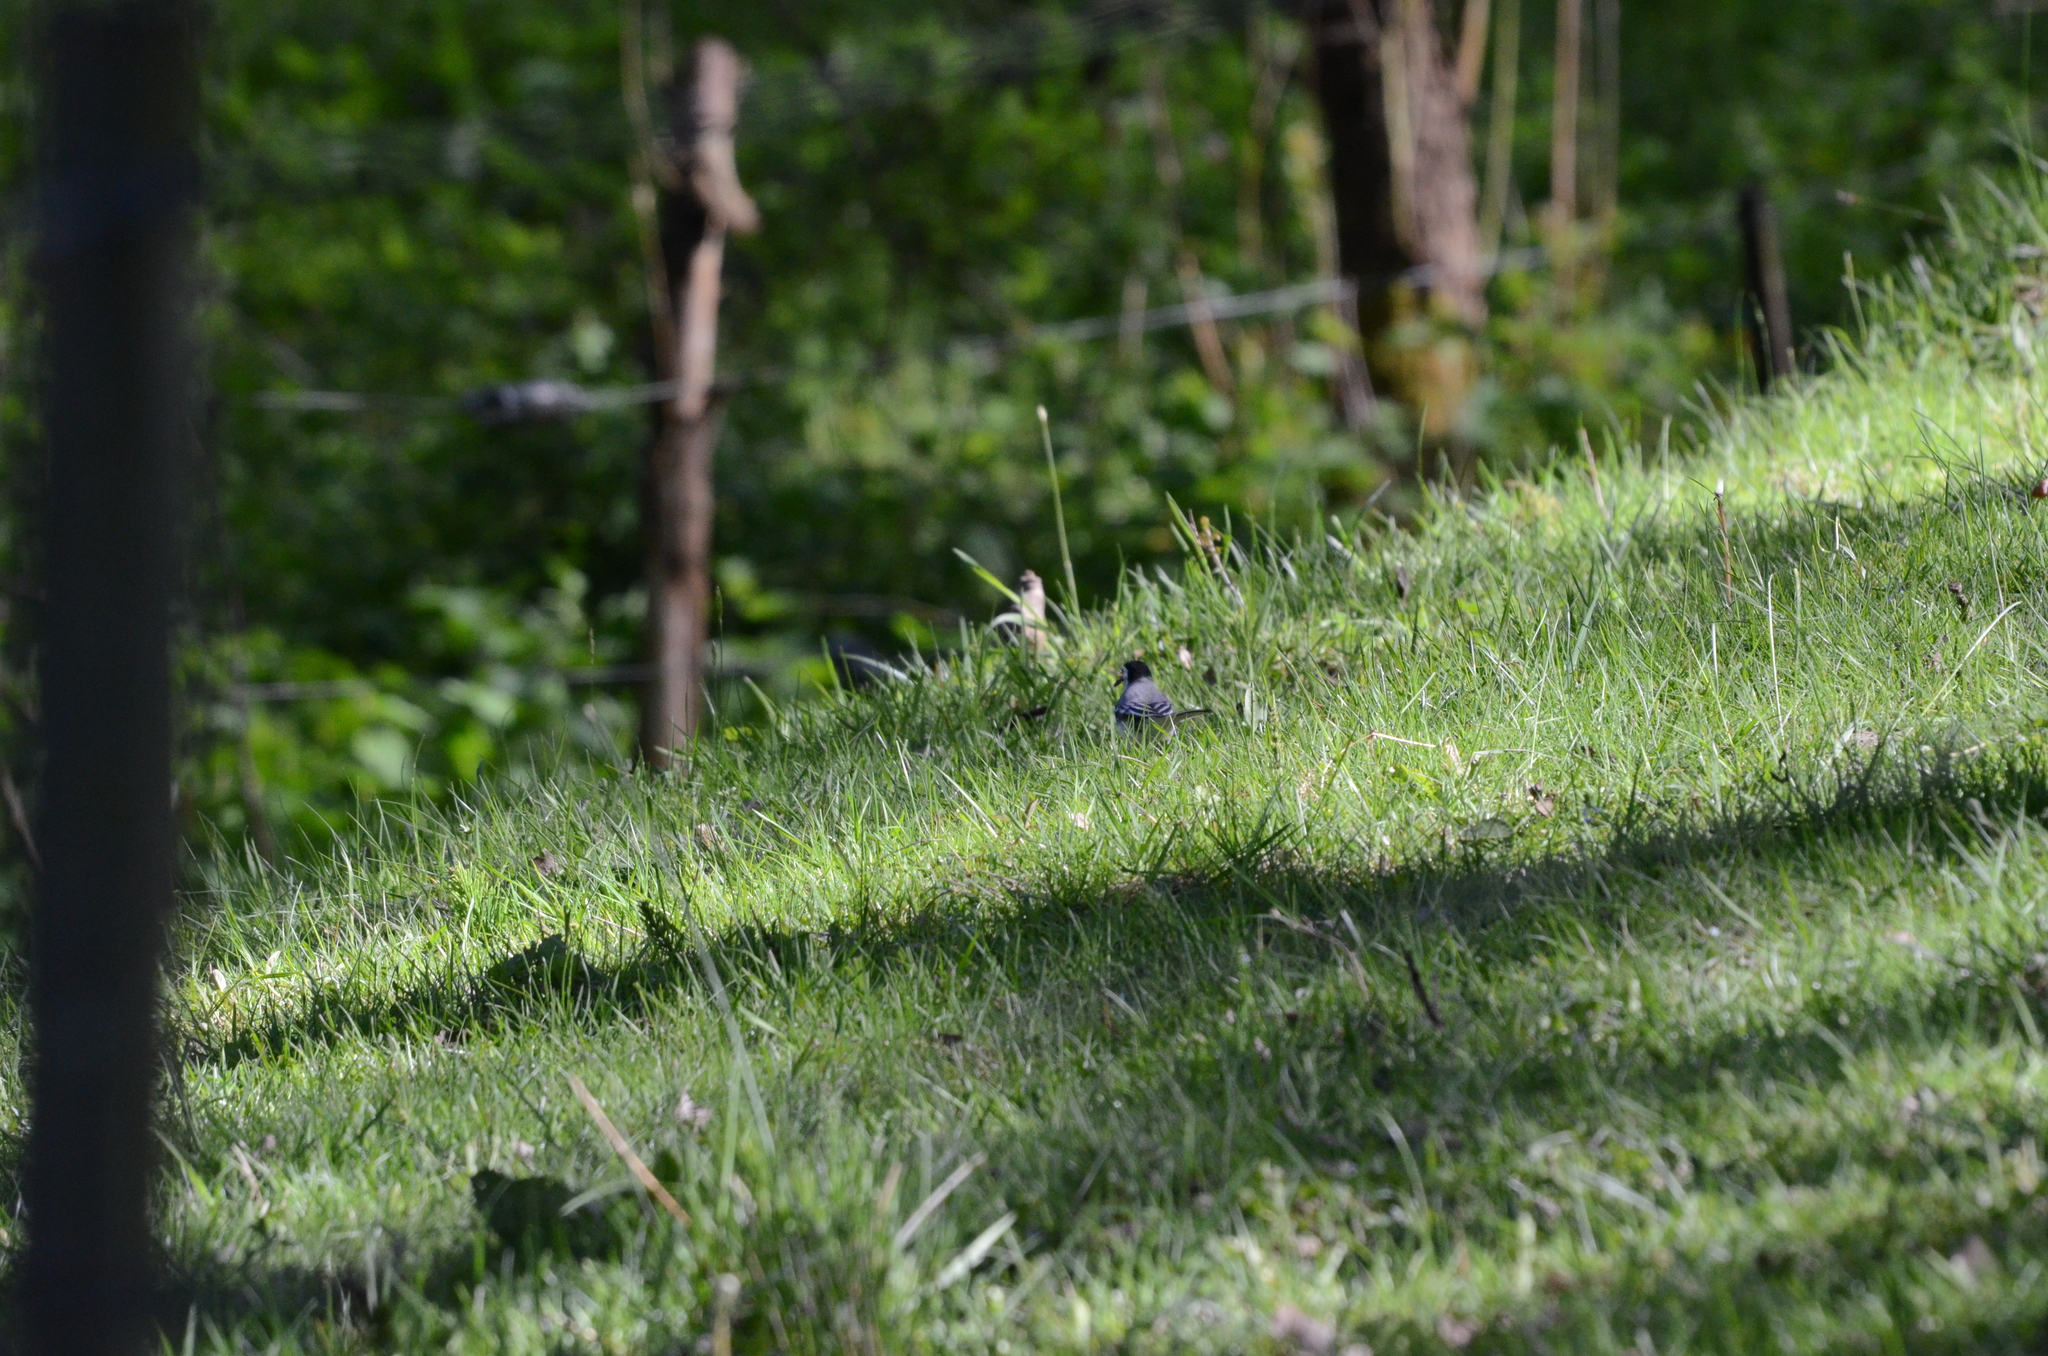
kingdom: Animalia
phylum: Chordata
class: Aves
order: Passeriformes
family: Motacillidae
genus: Motacilla
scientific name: Motacilla alba
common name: White wagtail
